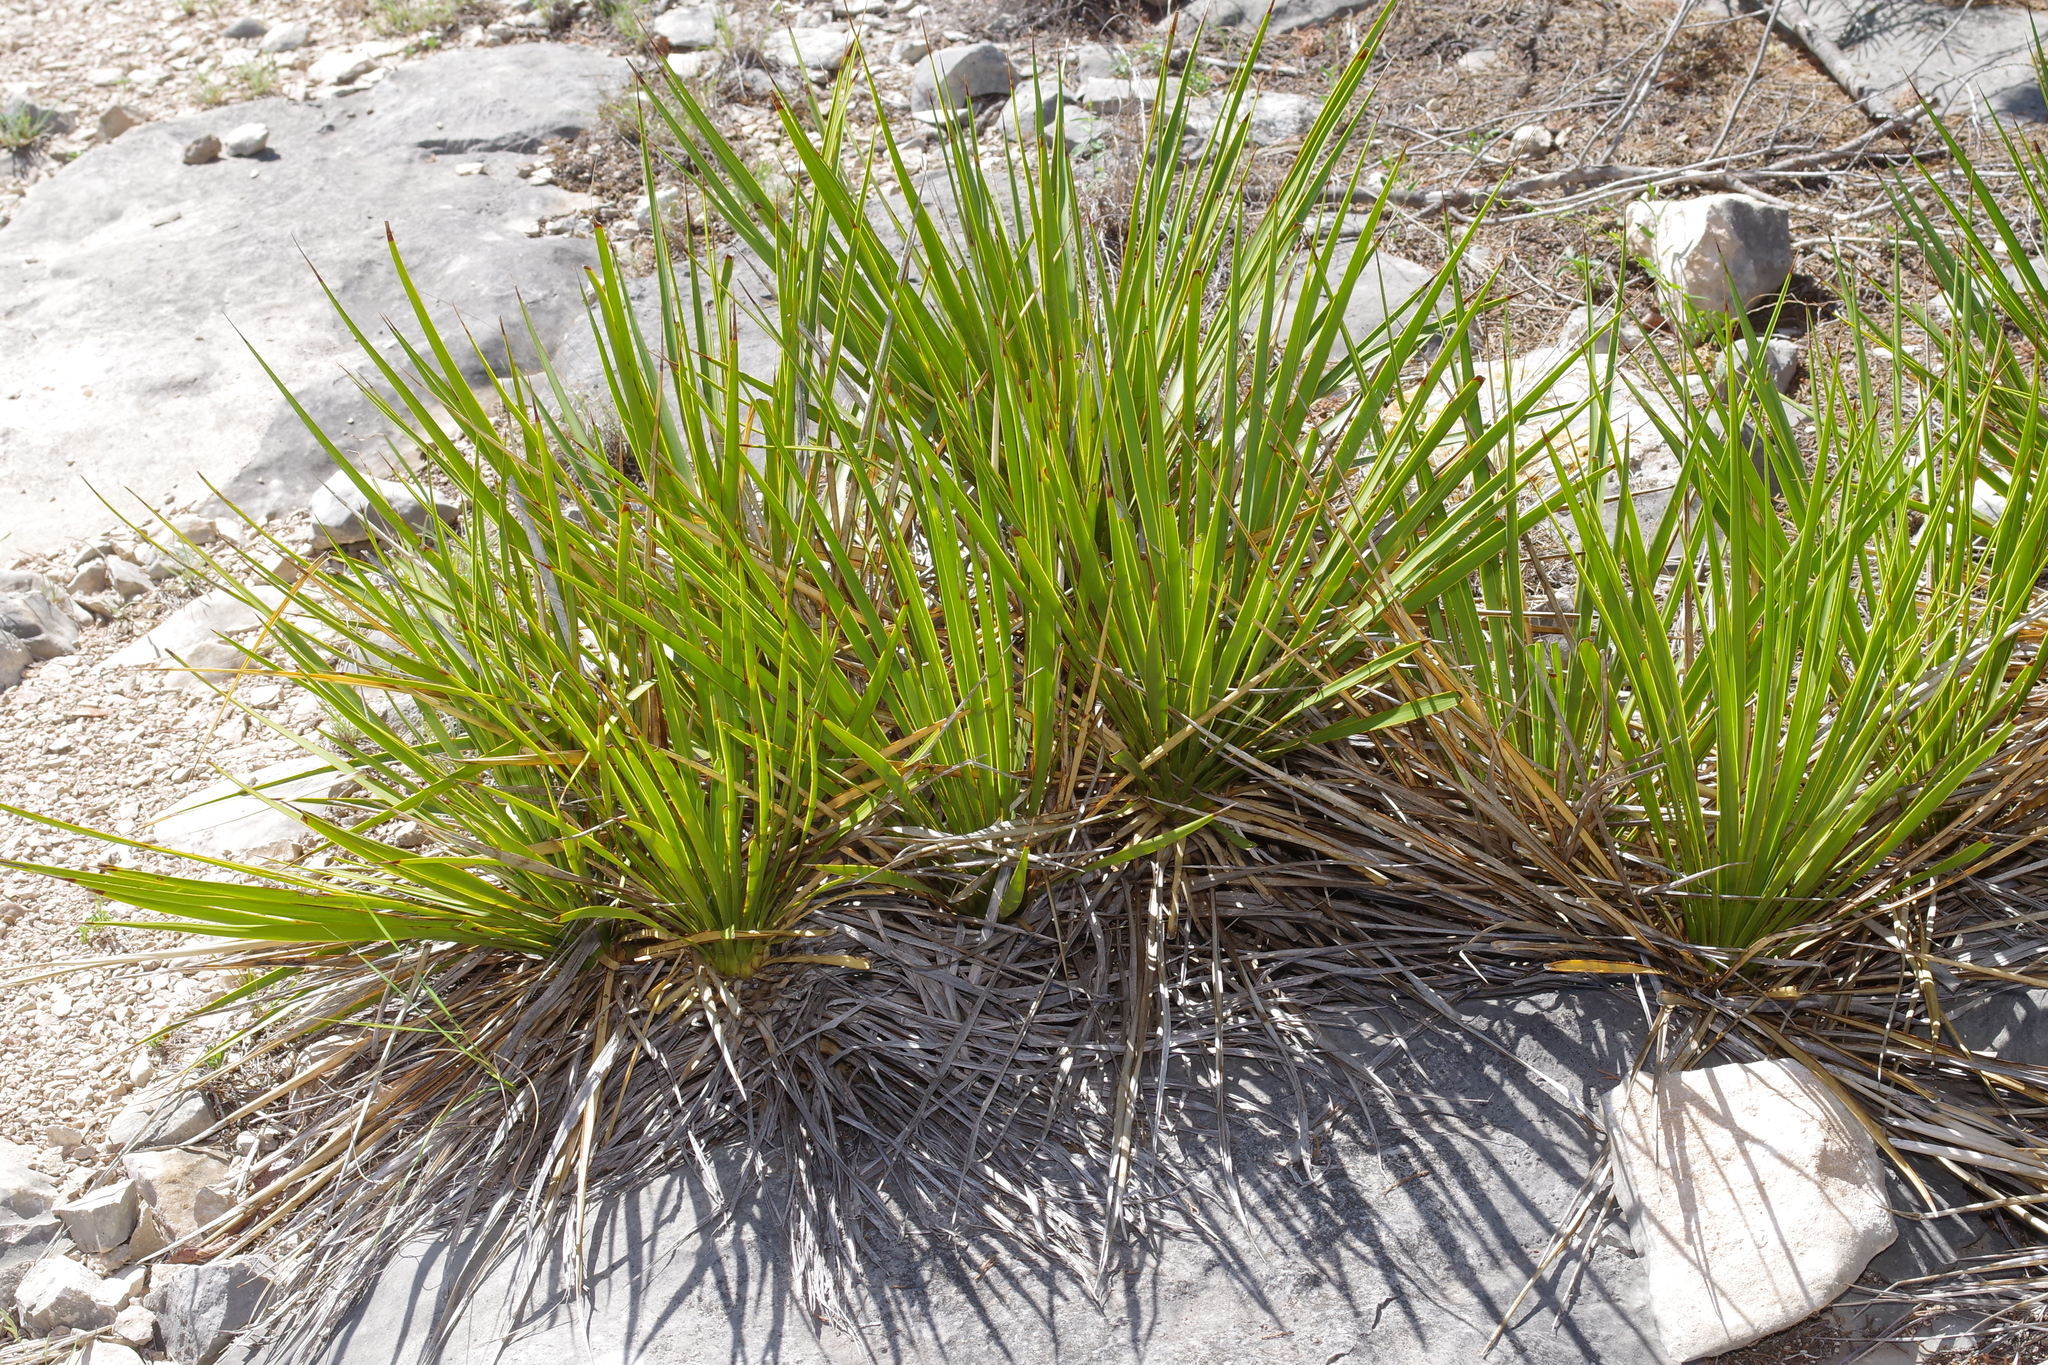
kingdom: Plantae
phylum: Tracheophyta
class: Liliopsida
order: Asparagales
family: Asparagaceae
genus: Yucca
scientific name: Yucca reverchonii
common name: San angelo yucca
